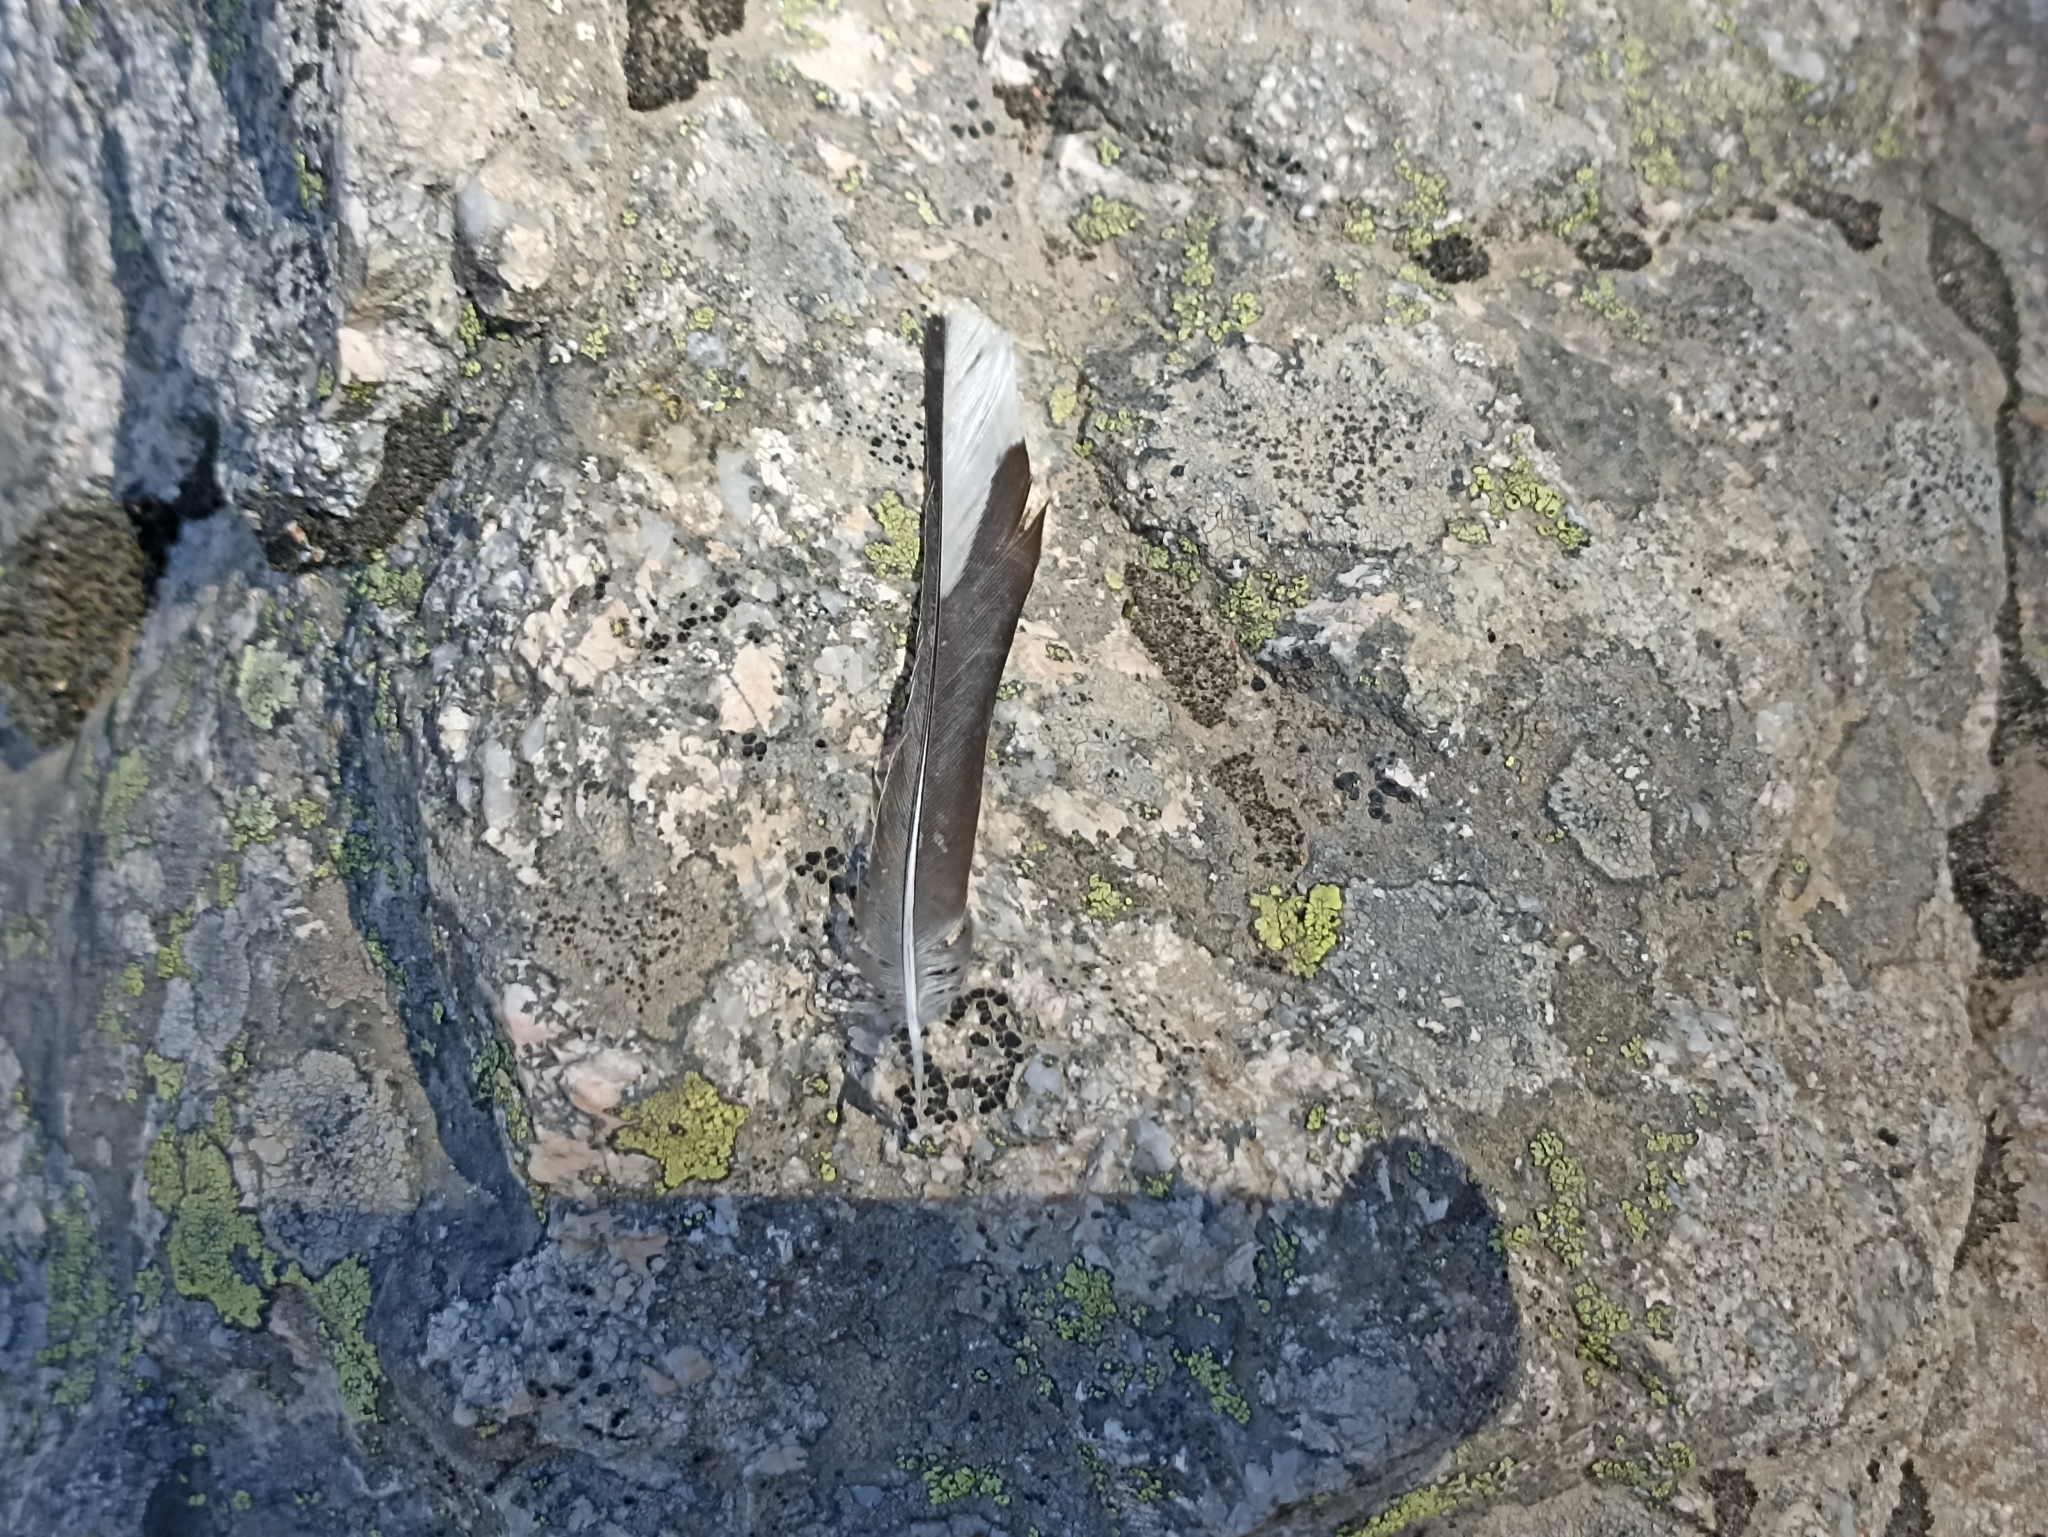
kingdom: Animalia
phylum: Chordata
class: Aves
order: Passeriformes
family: Fringillidae
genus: Fringilla
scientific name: Fringilla coelebs
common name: Common chaffinch
